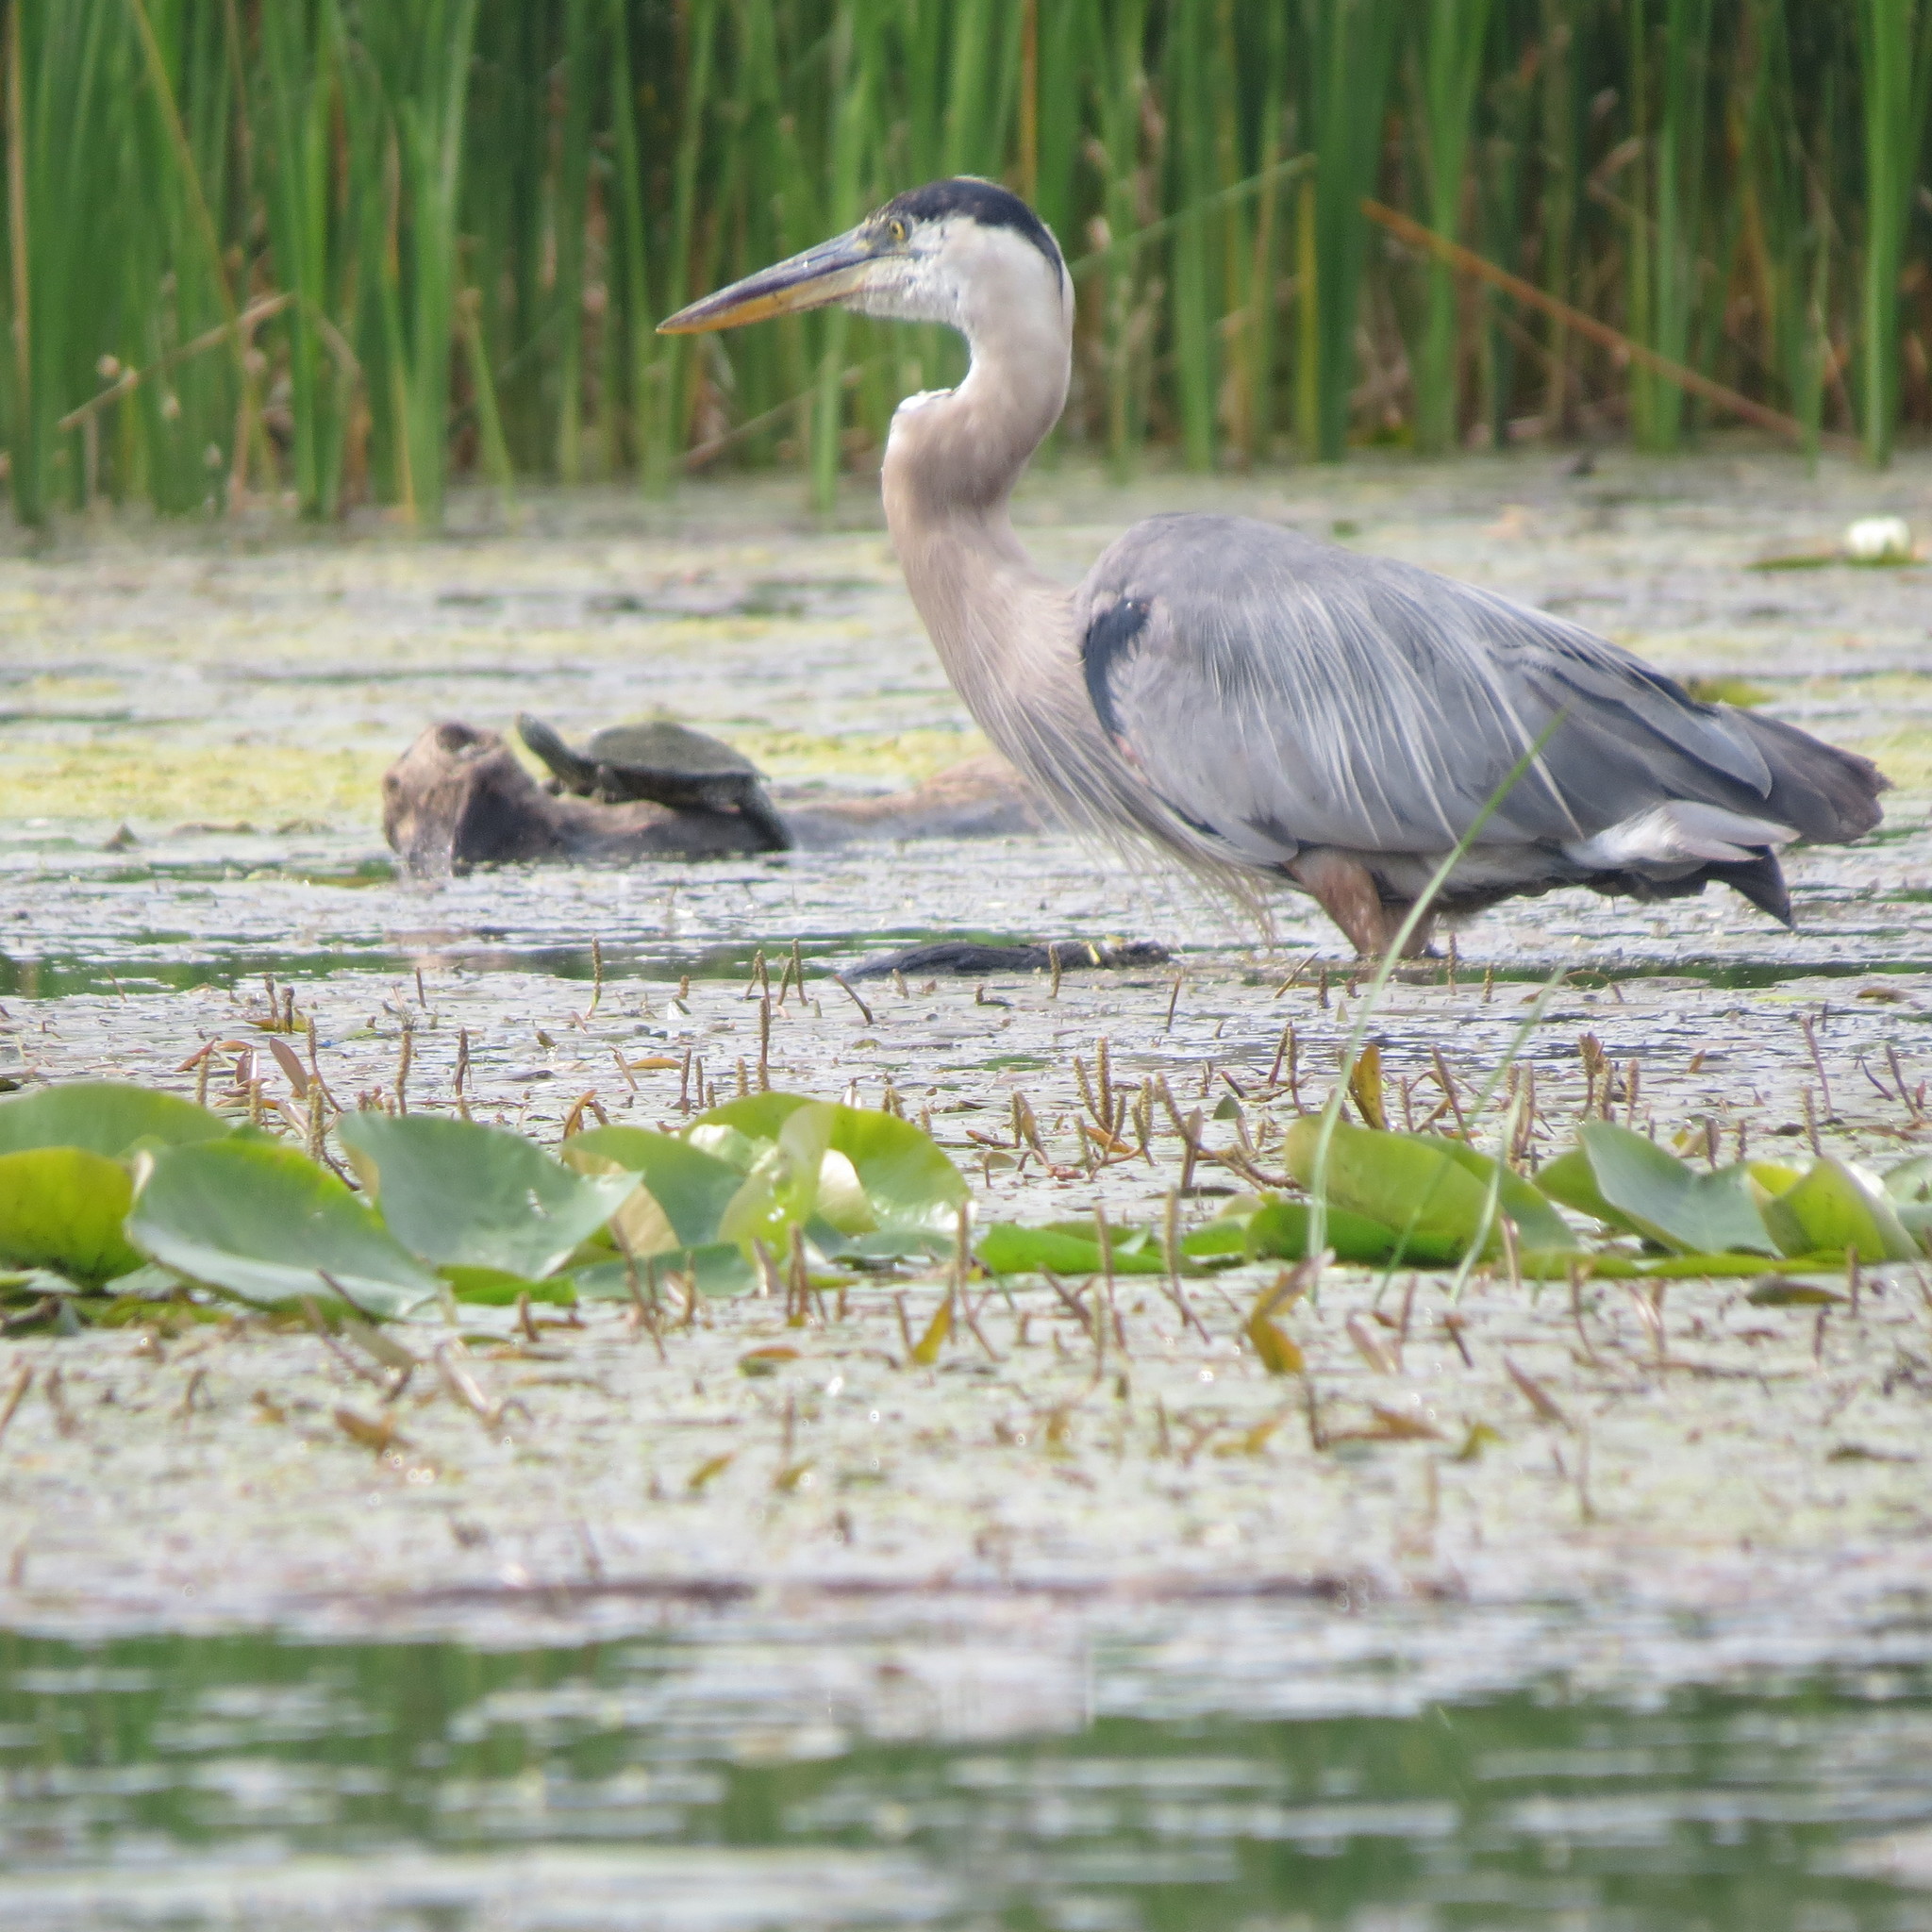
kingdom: Animalia
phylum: Chordata
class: Aves
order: Pelecaniformes
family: Ardeidae
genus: Ardea
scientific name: Ardea herodias
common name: Great blue heron
